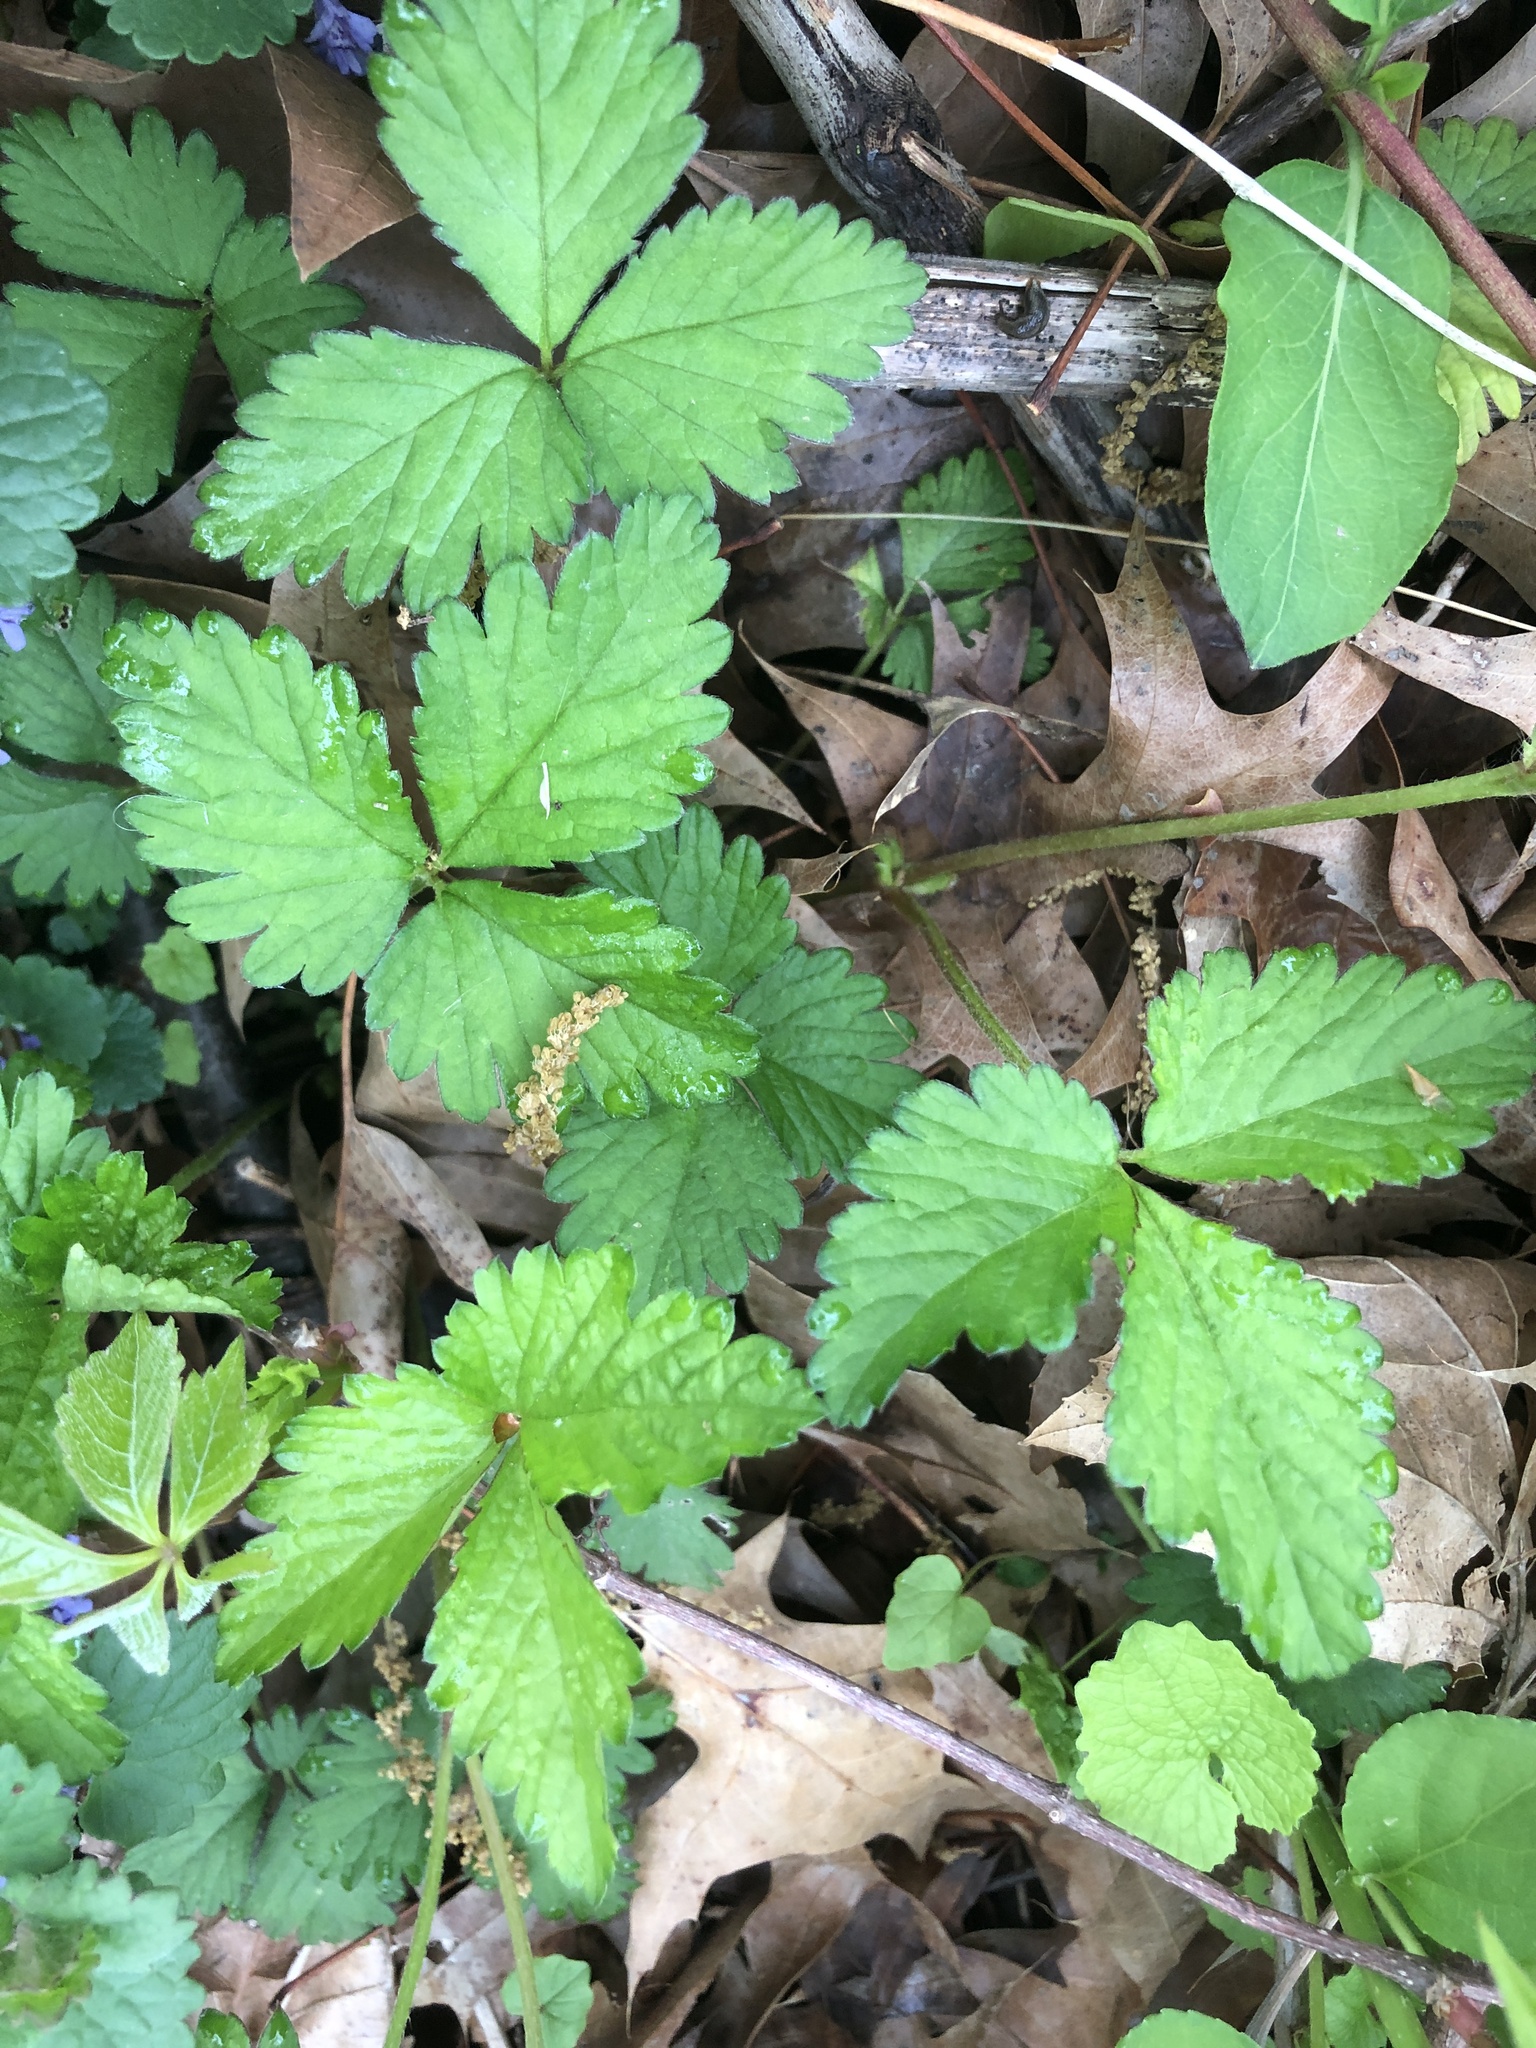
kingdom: Plantae
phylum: Tracheophyta
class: Magnoliopsida
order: Rosales
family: Rosaceae
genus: Potentilla
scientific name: Potentilla indica
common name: Yellow-flowered strawberry
